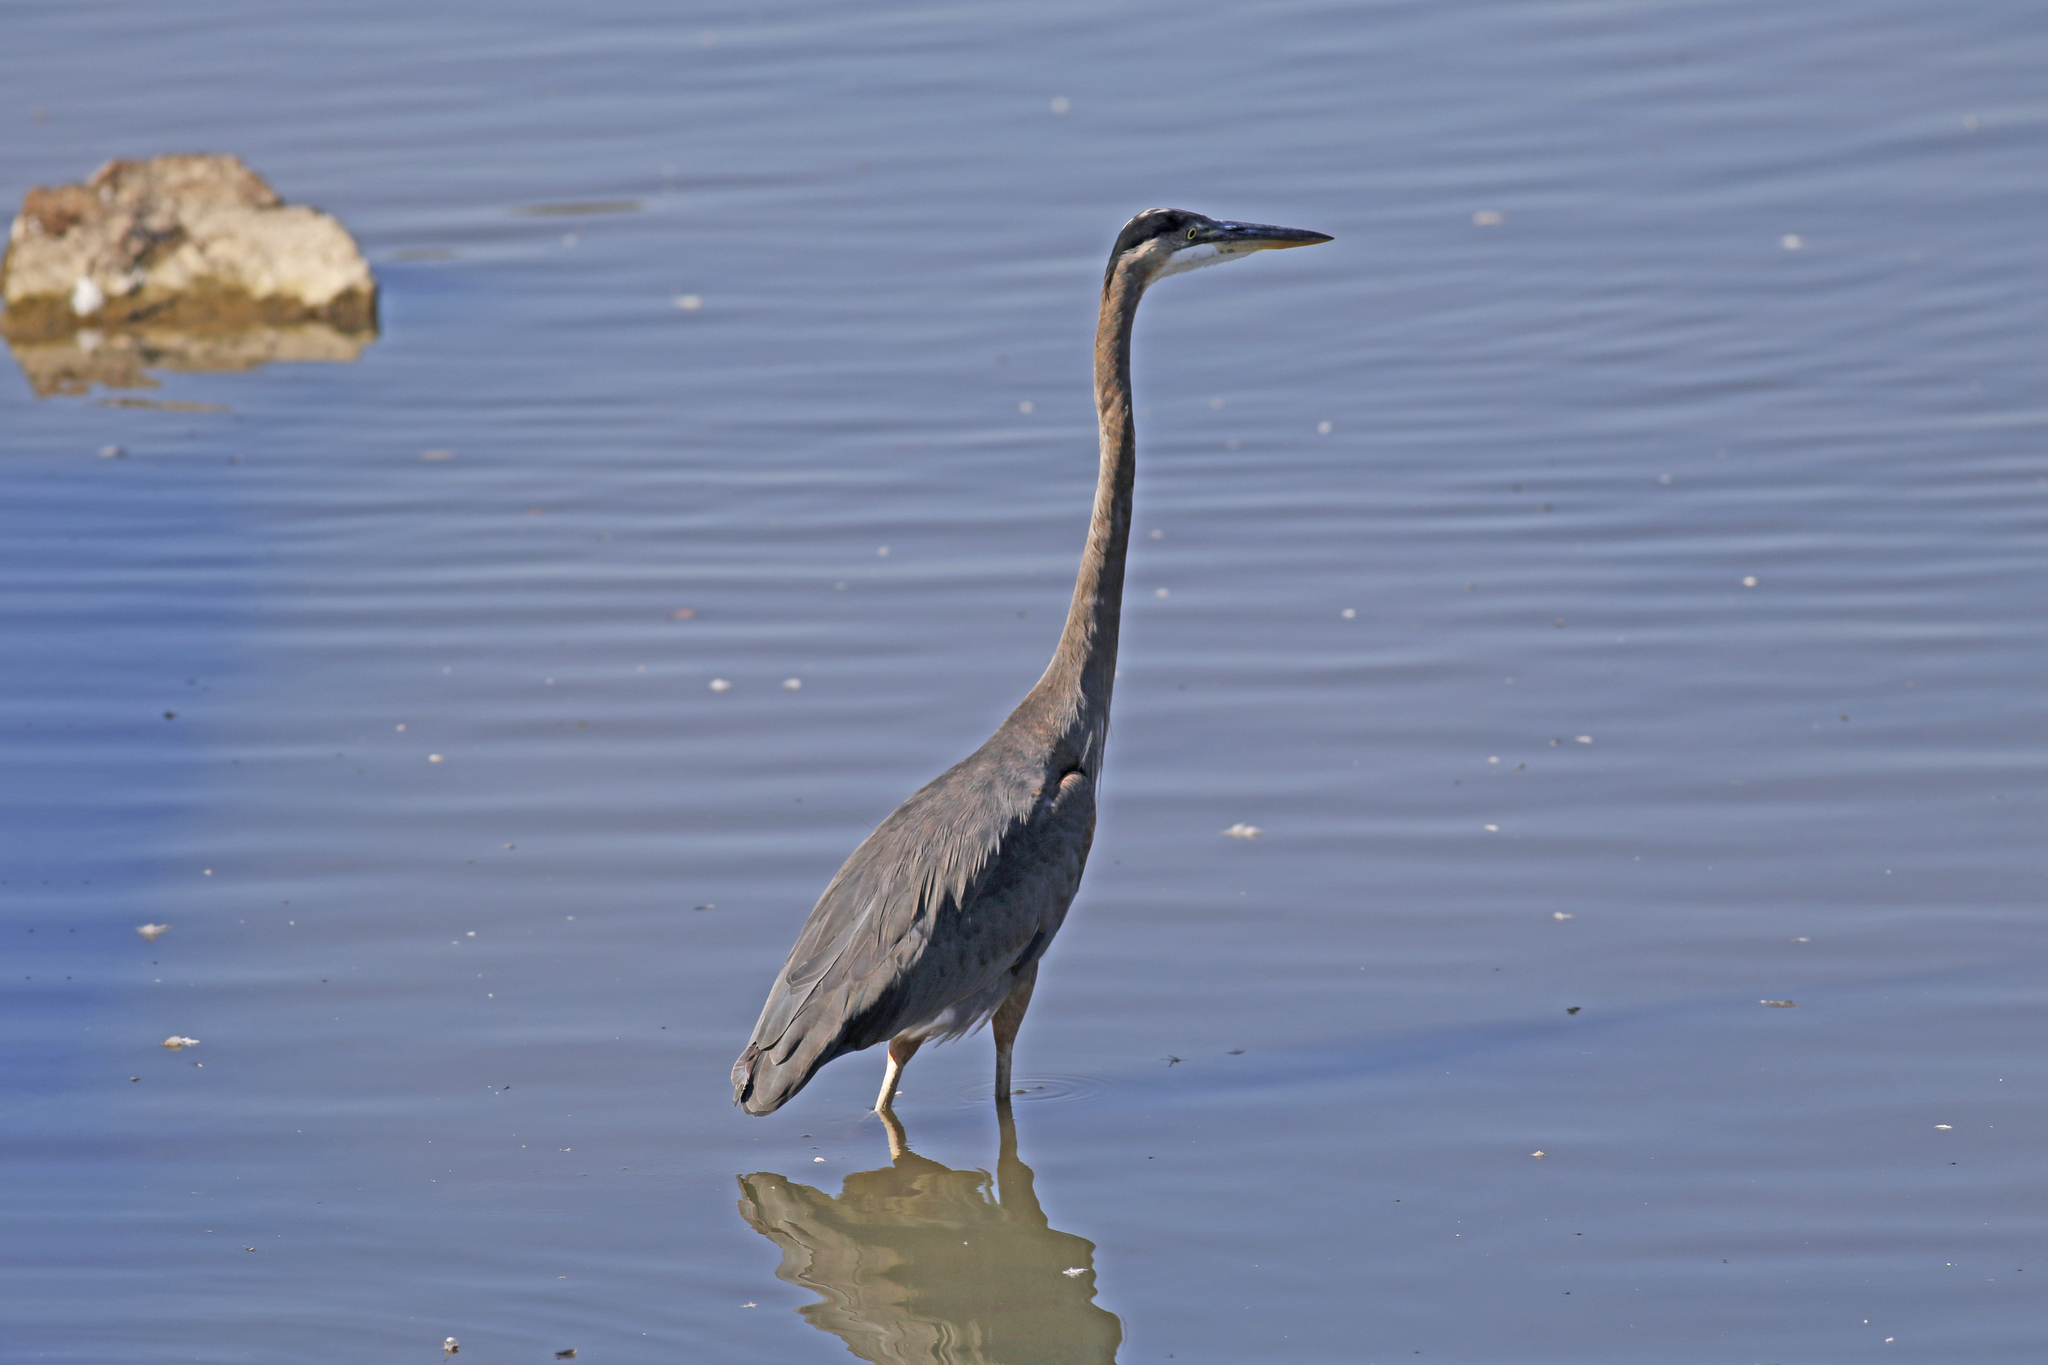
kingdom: Animalia
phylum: Chordata
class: Aves
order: Pelecaniformes
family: Ardeidae
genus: Ardea
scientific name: Ardea herodias
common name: Great blue heron
